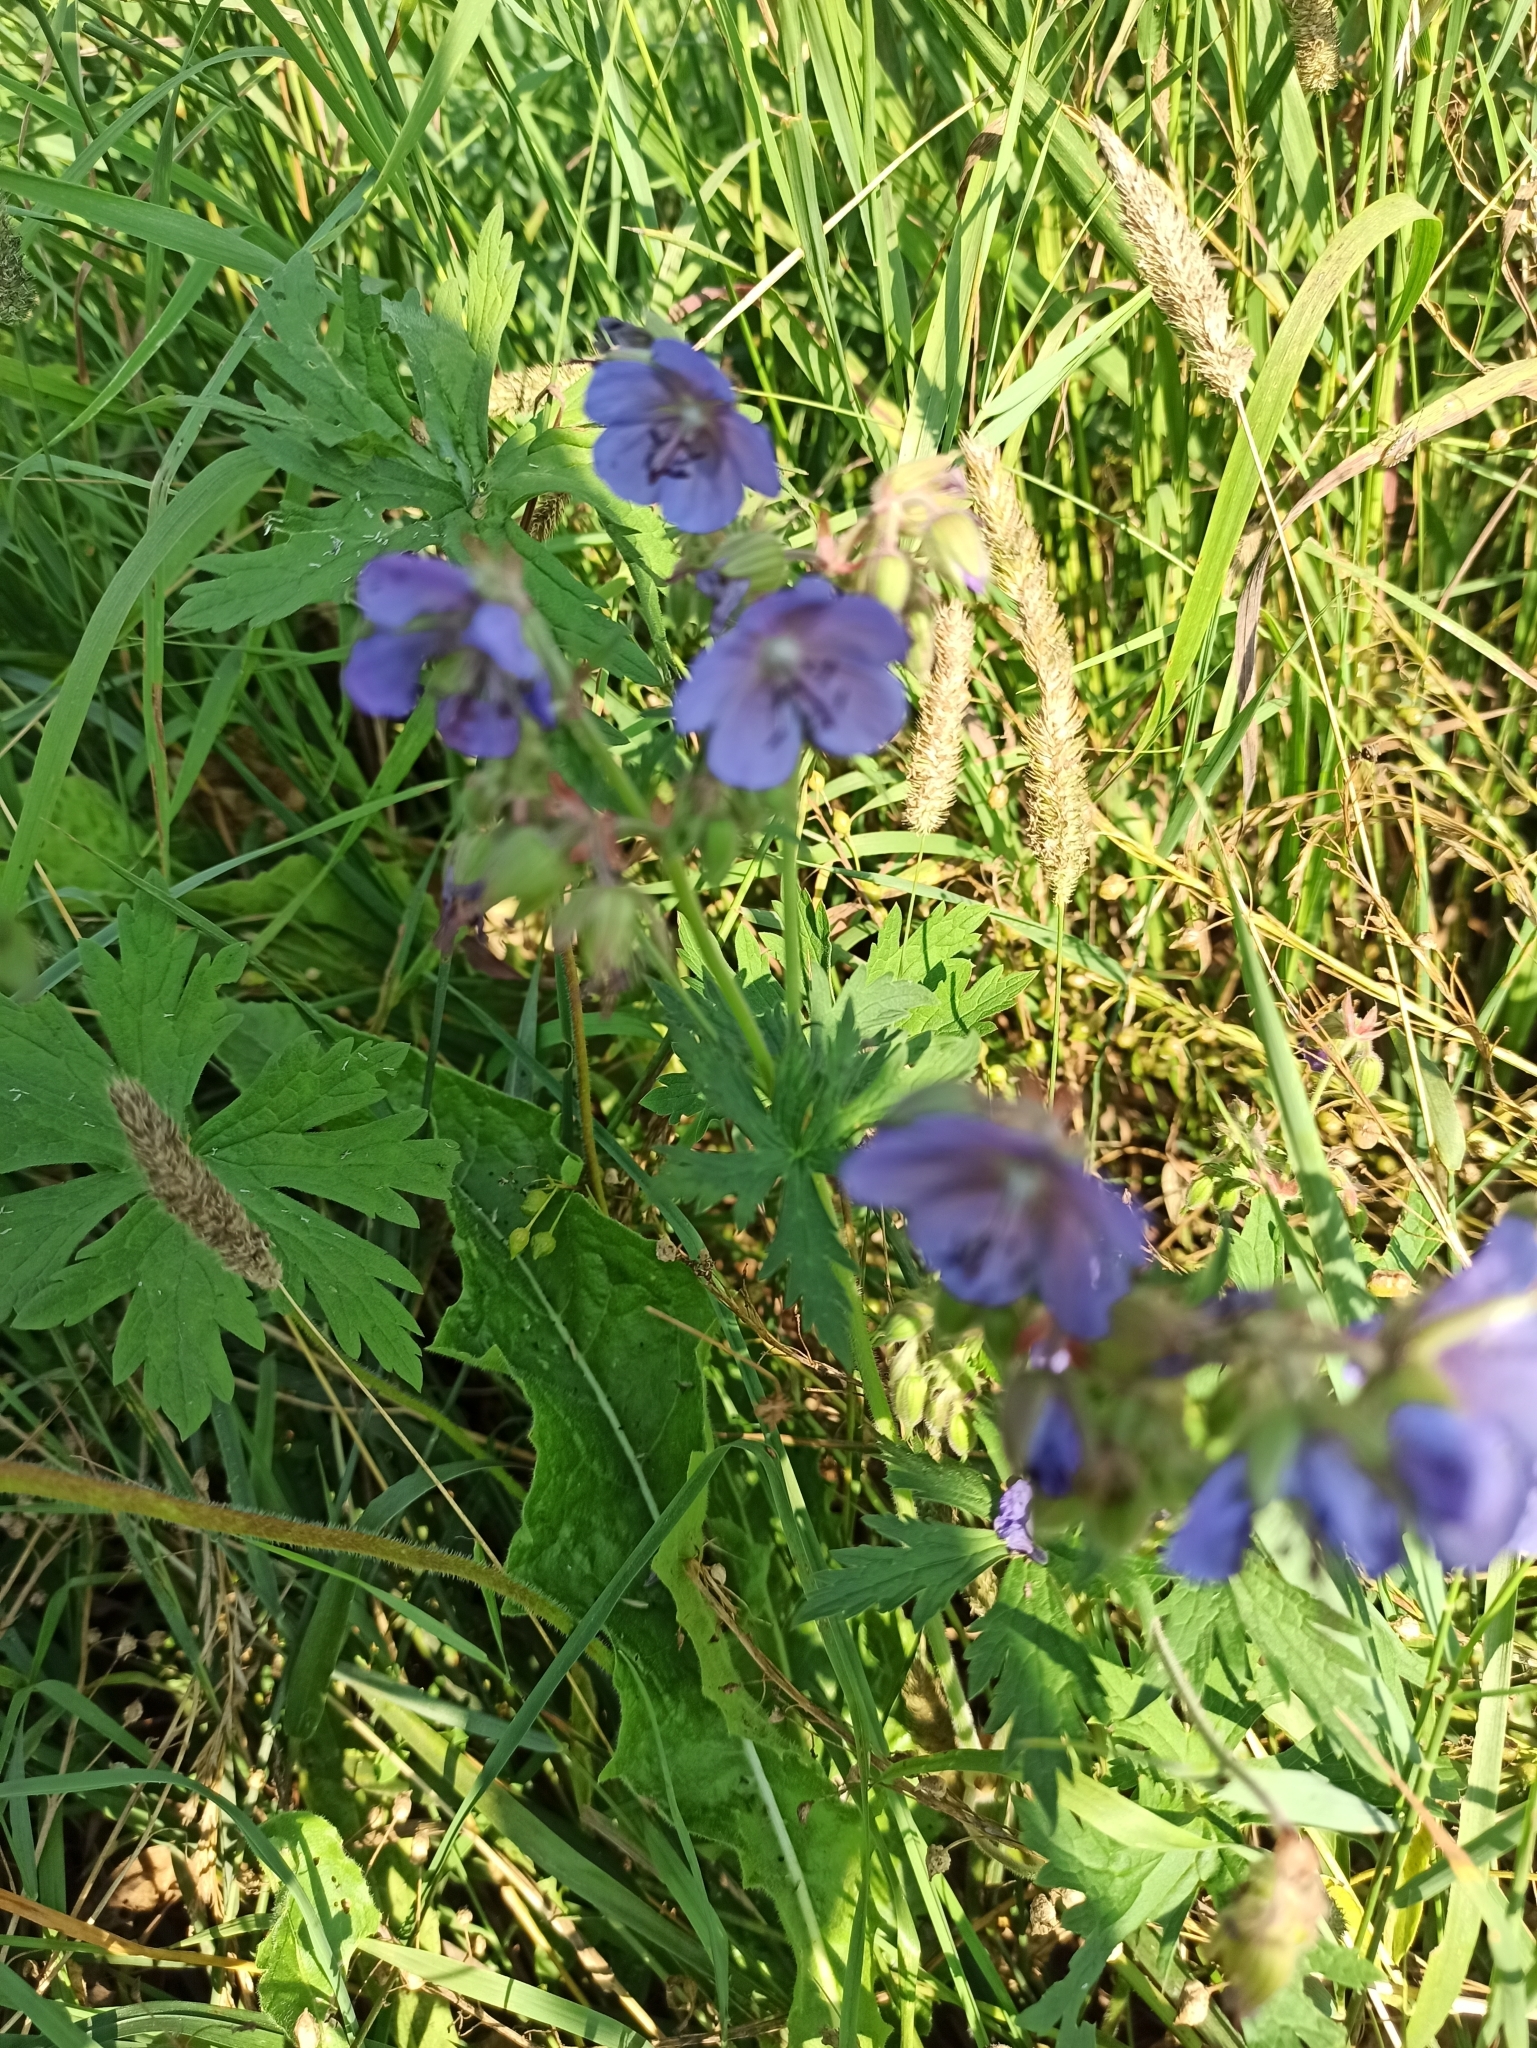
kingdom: Plantae
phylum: Tracheophyta
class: Magnoliopsida
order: Geraniales
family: Geraniaceae
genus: Geranium
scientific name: Geranium pratense
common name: Meadow crane's-bill
